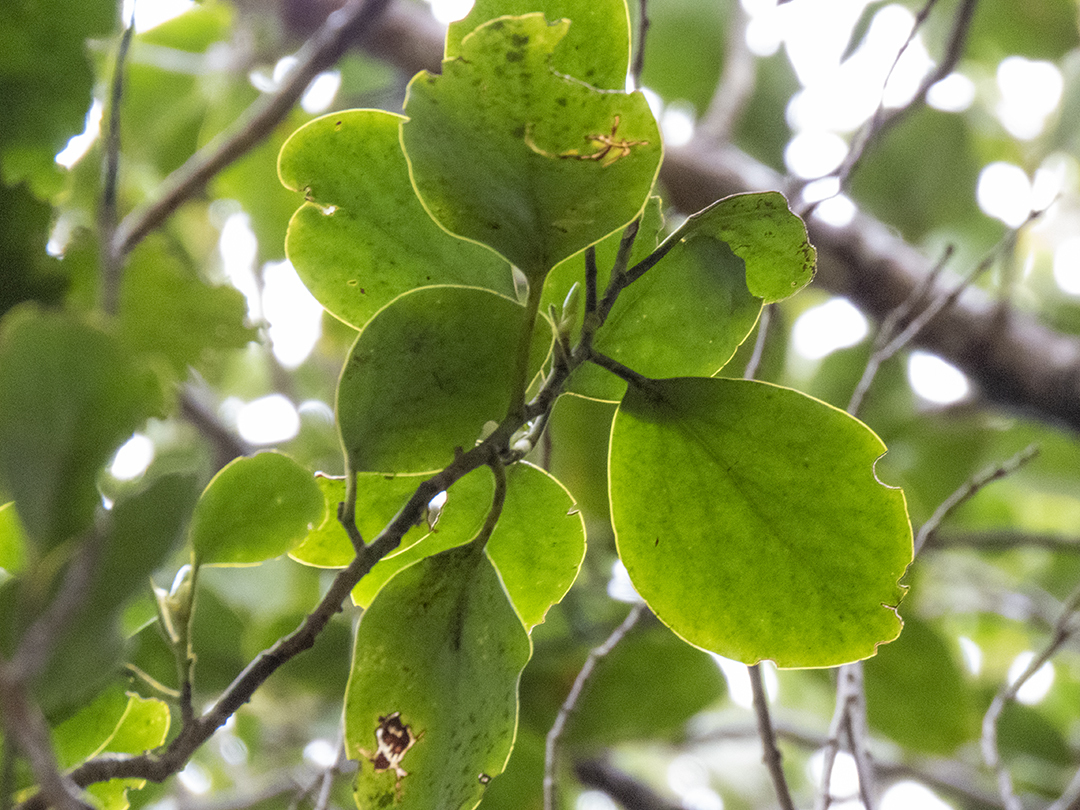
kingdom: Plantae
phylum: Tracheophyta
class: Magnoliopsida
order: Apiales
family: Griseliniaceae
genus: Griselinia
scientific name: Griselinia littoralis
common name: New zealand broadleaf
